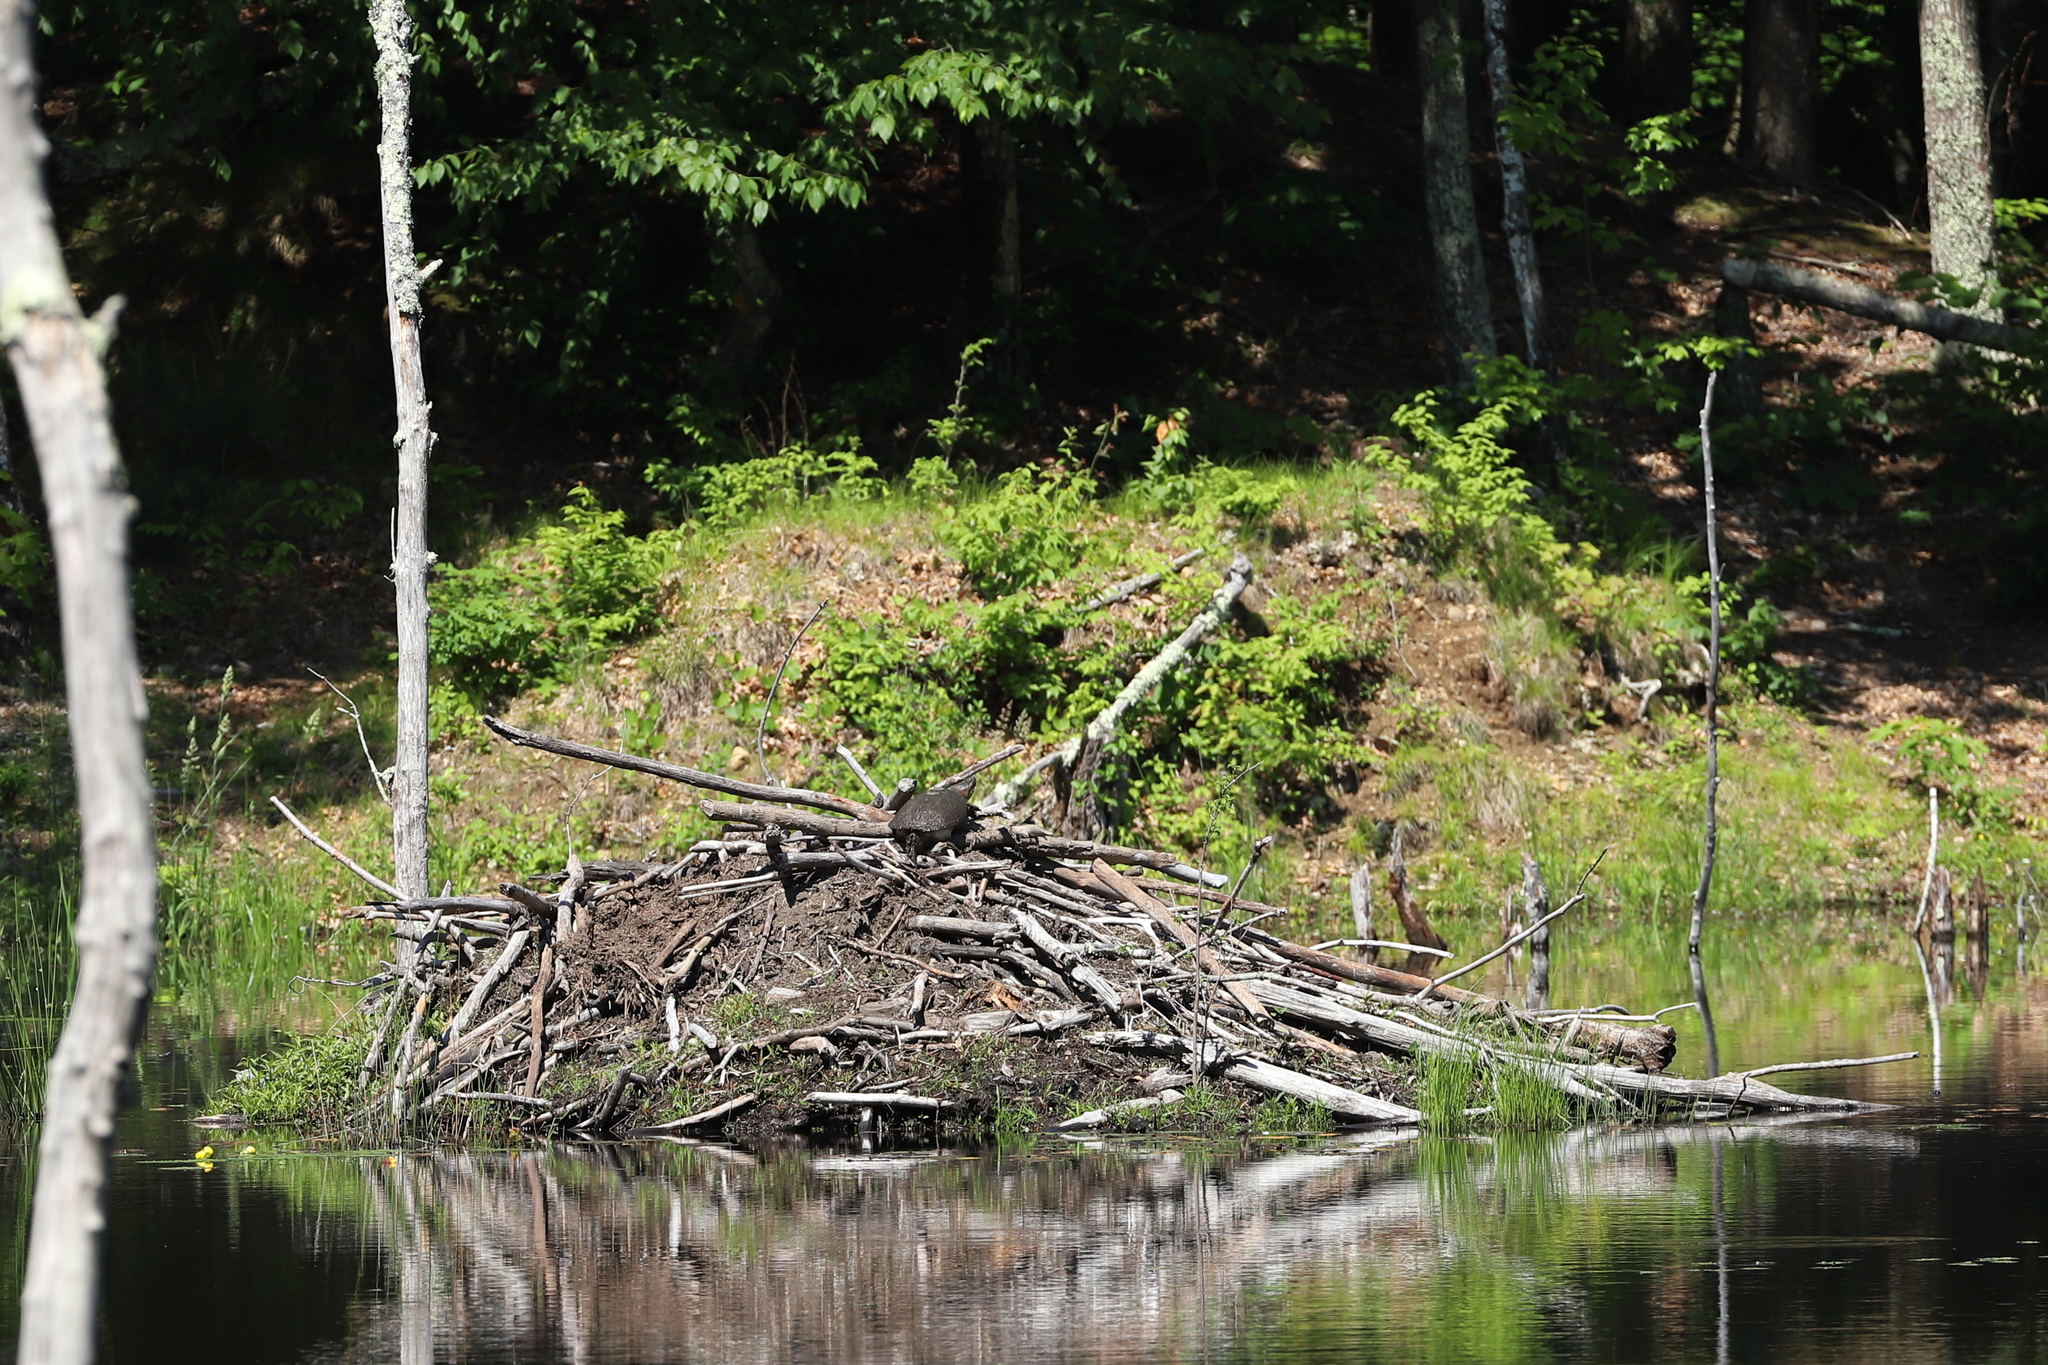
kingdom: Animalia
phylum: Chordata
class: Testudines
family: Chelydridae
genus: Chelydra
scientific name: Chelydra serpentina
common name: Common snapping turtle
